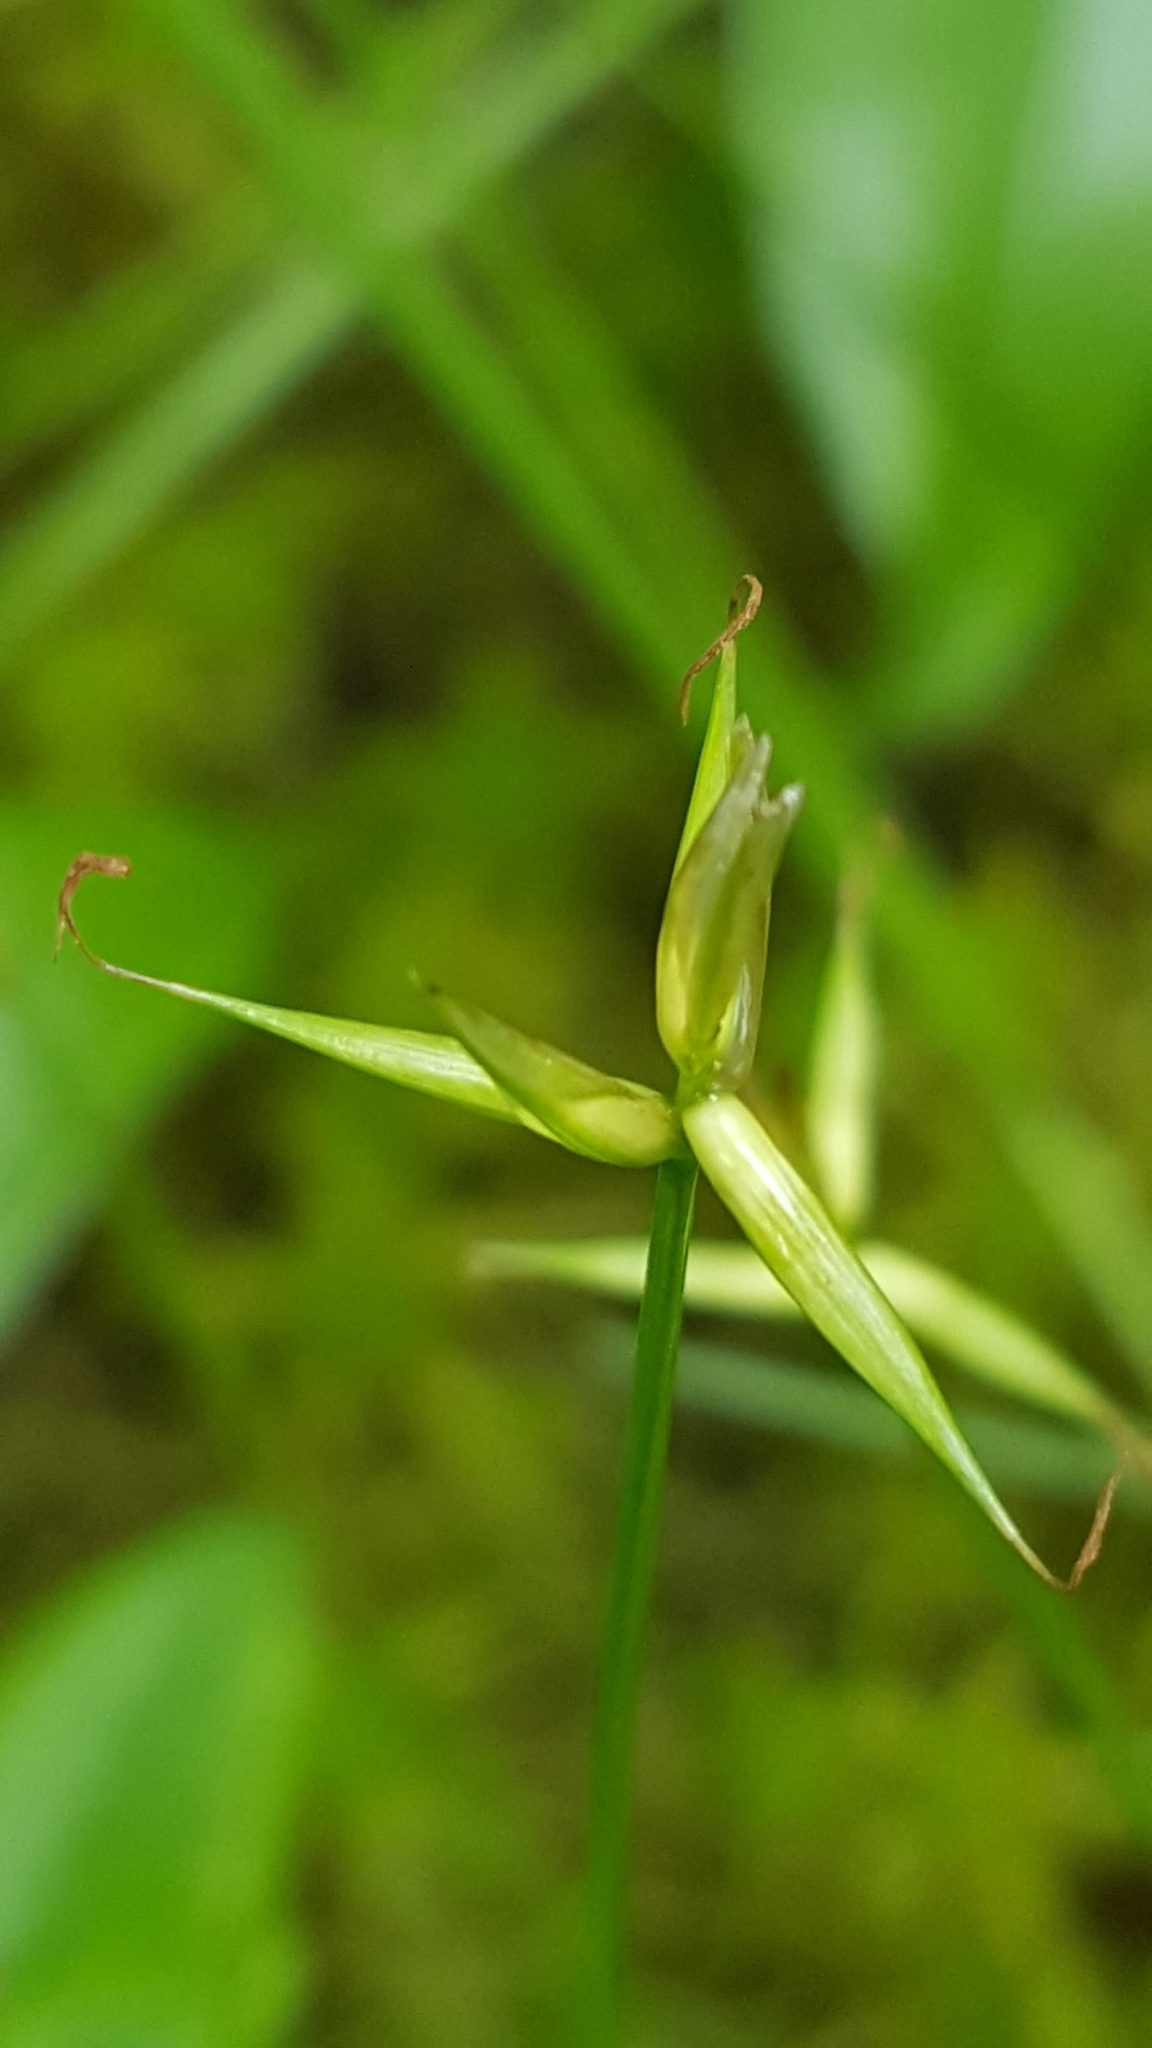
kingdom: Plantae
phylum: Tracheophyta
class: Liliopsida
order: Poales
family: Cyperaceae
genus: Carex
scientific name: Carex pauciflora
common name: Few-flowered sedge
